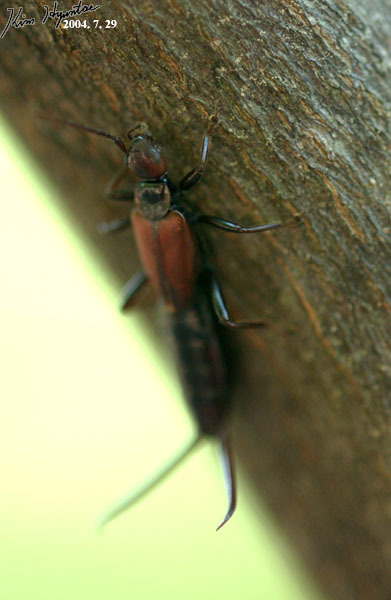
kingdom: Animalia
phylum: Arthropoda
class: Insecta
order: Dermaptera
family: Forficulidae
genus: Timomenus
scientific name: Timomenus komarovi
